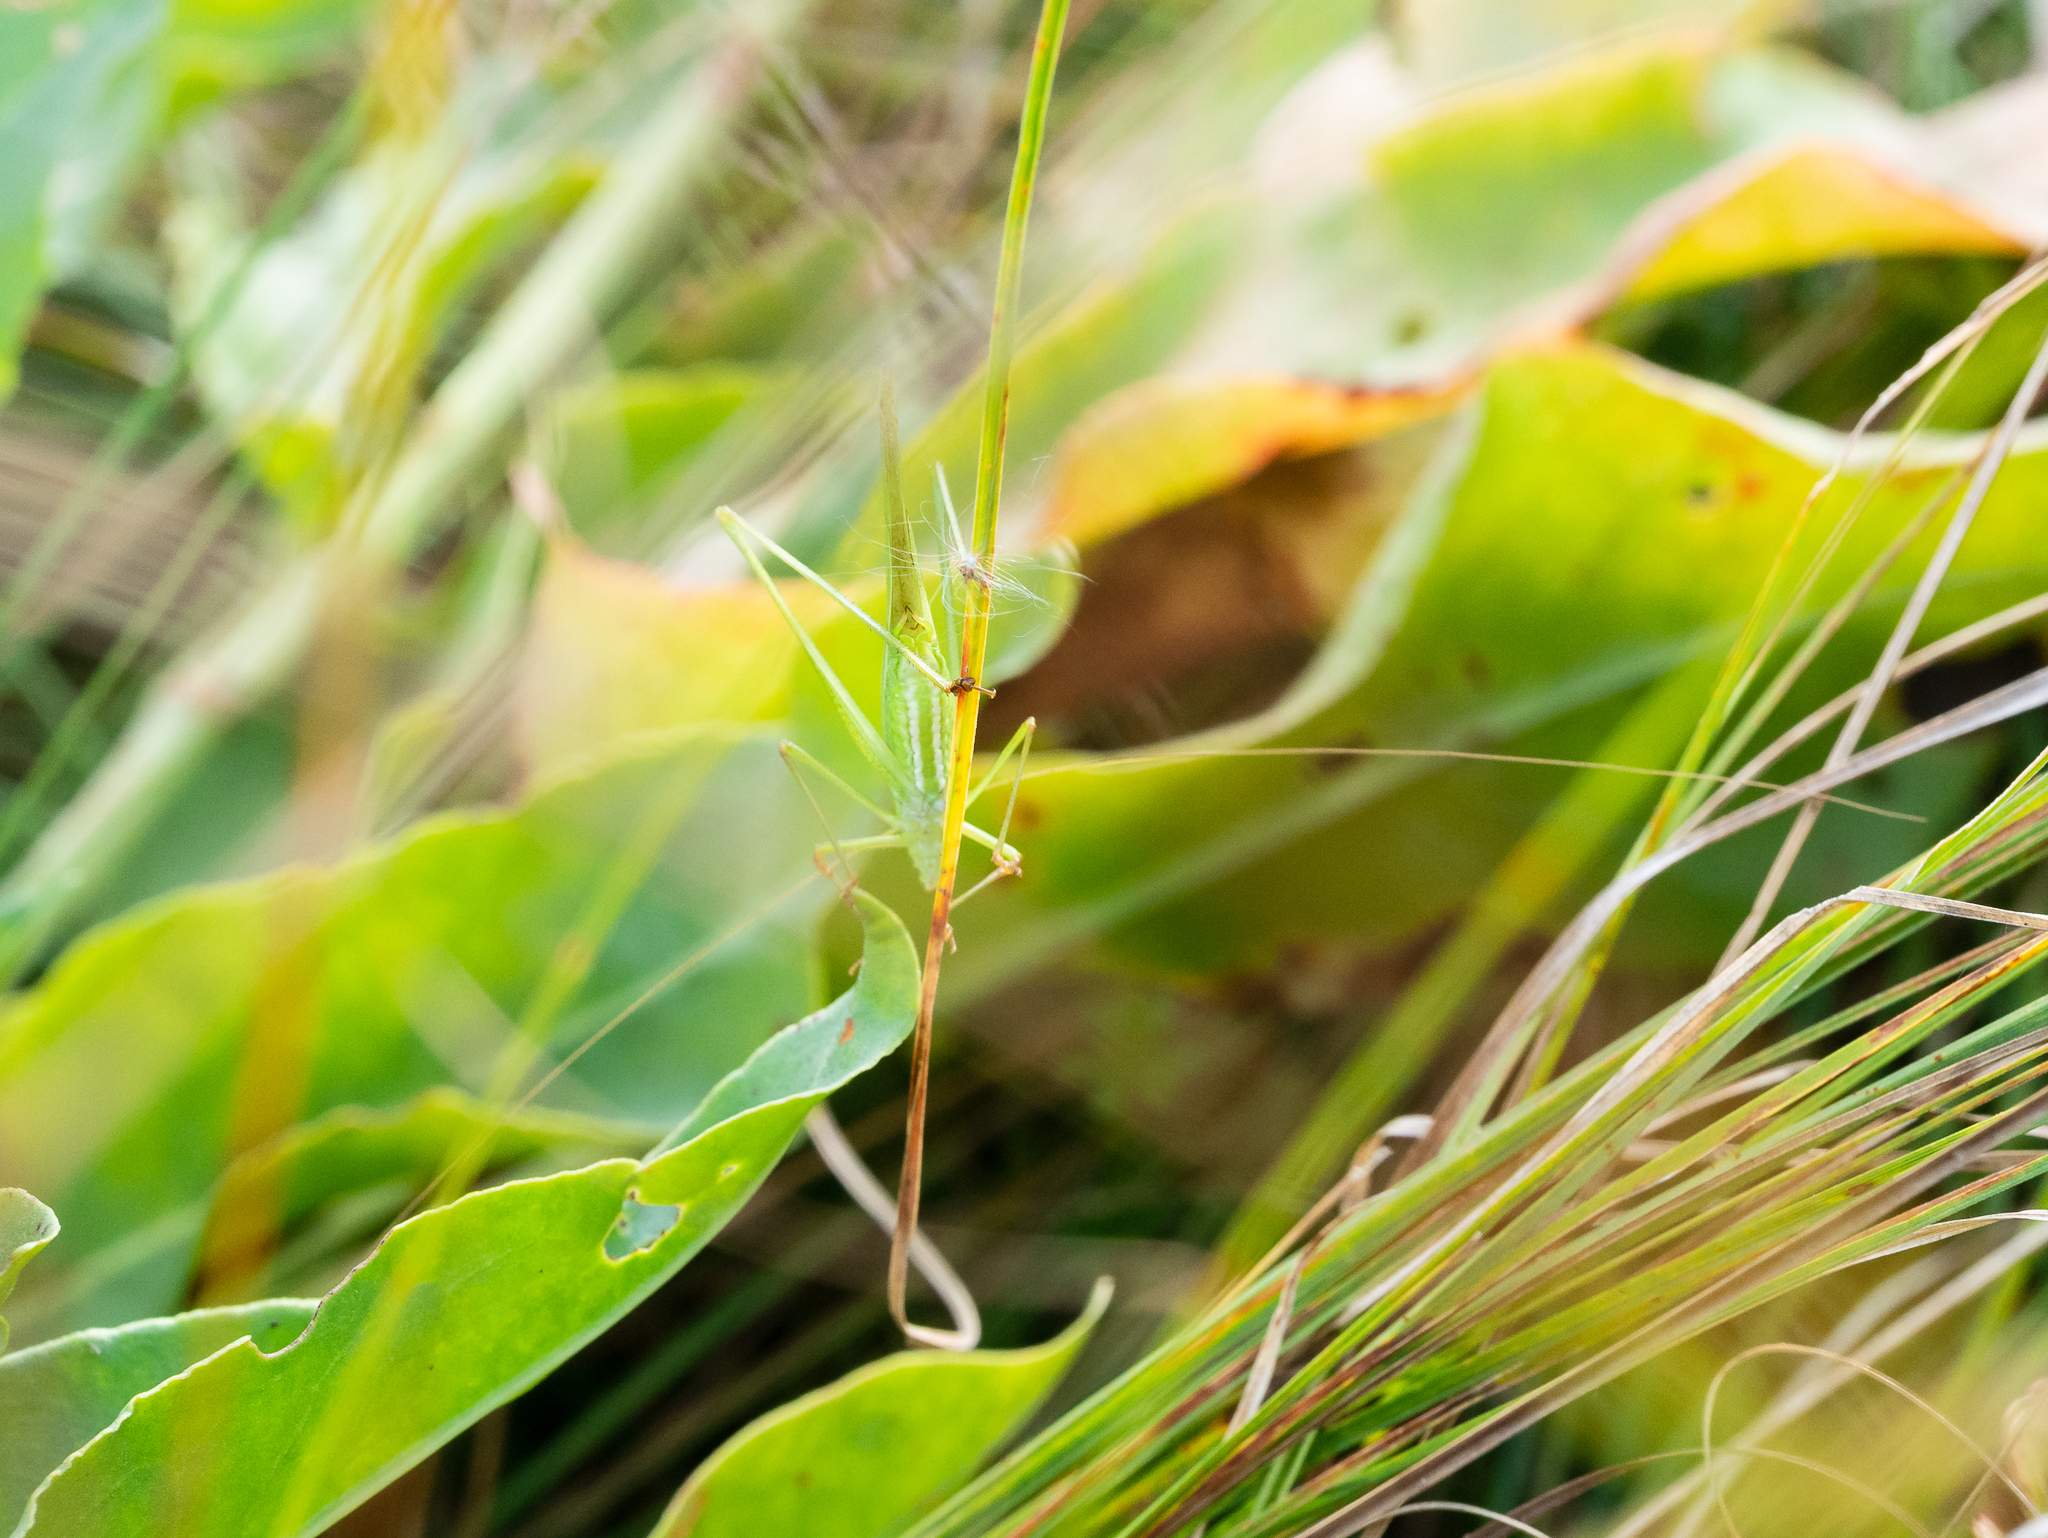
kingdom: Animalia
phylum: Arthropoda
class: Insecta
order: Orthoptera
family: Tettigoniidae
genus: Phaneroptera
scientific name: Phaneroptera falcata
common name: Sickle-bearing bush-cricket
